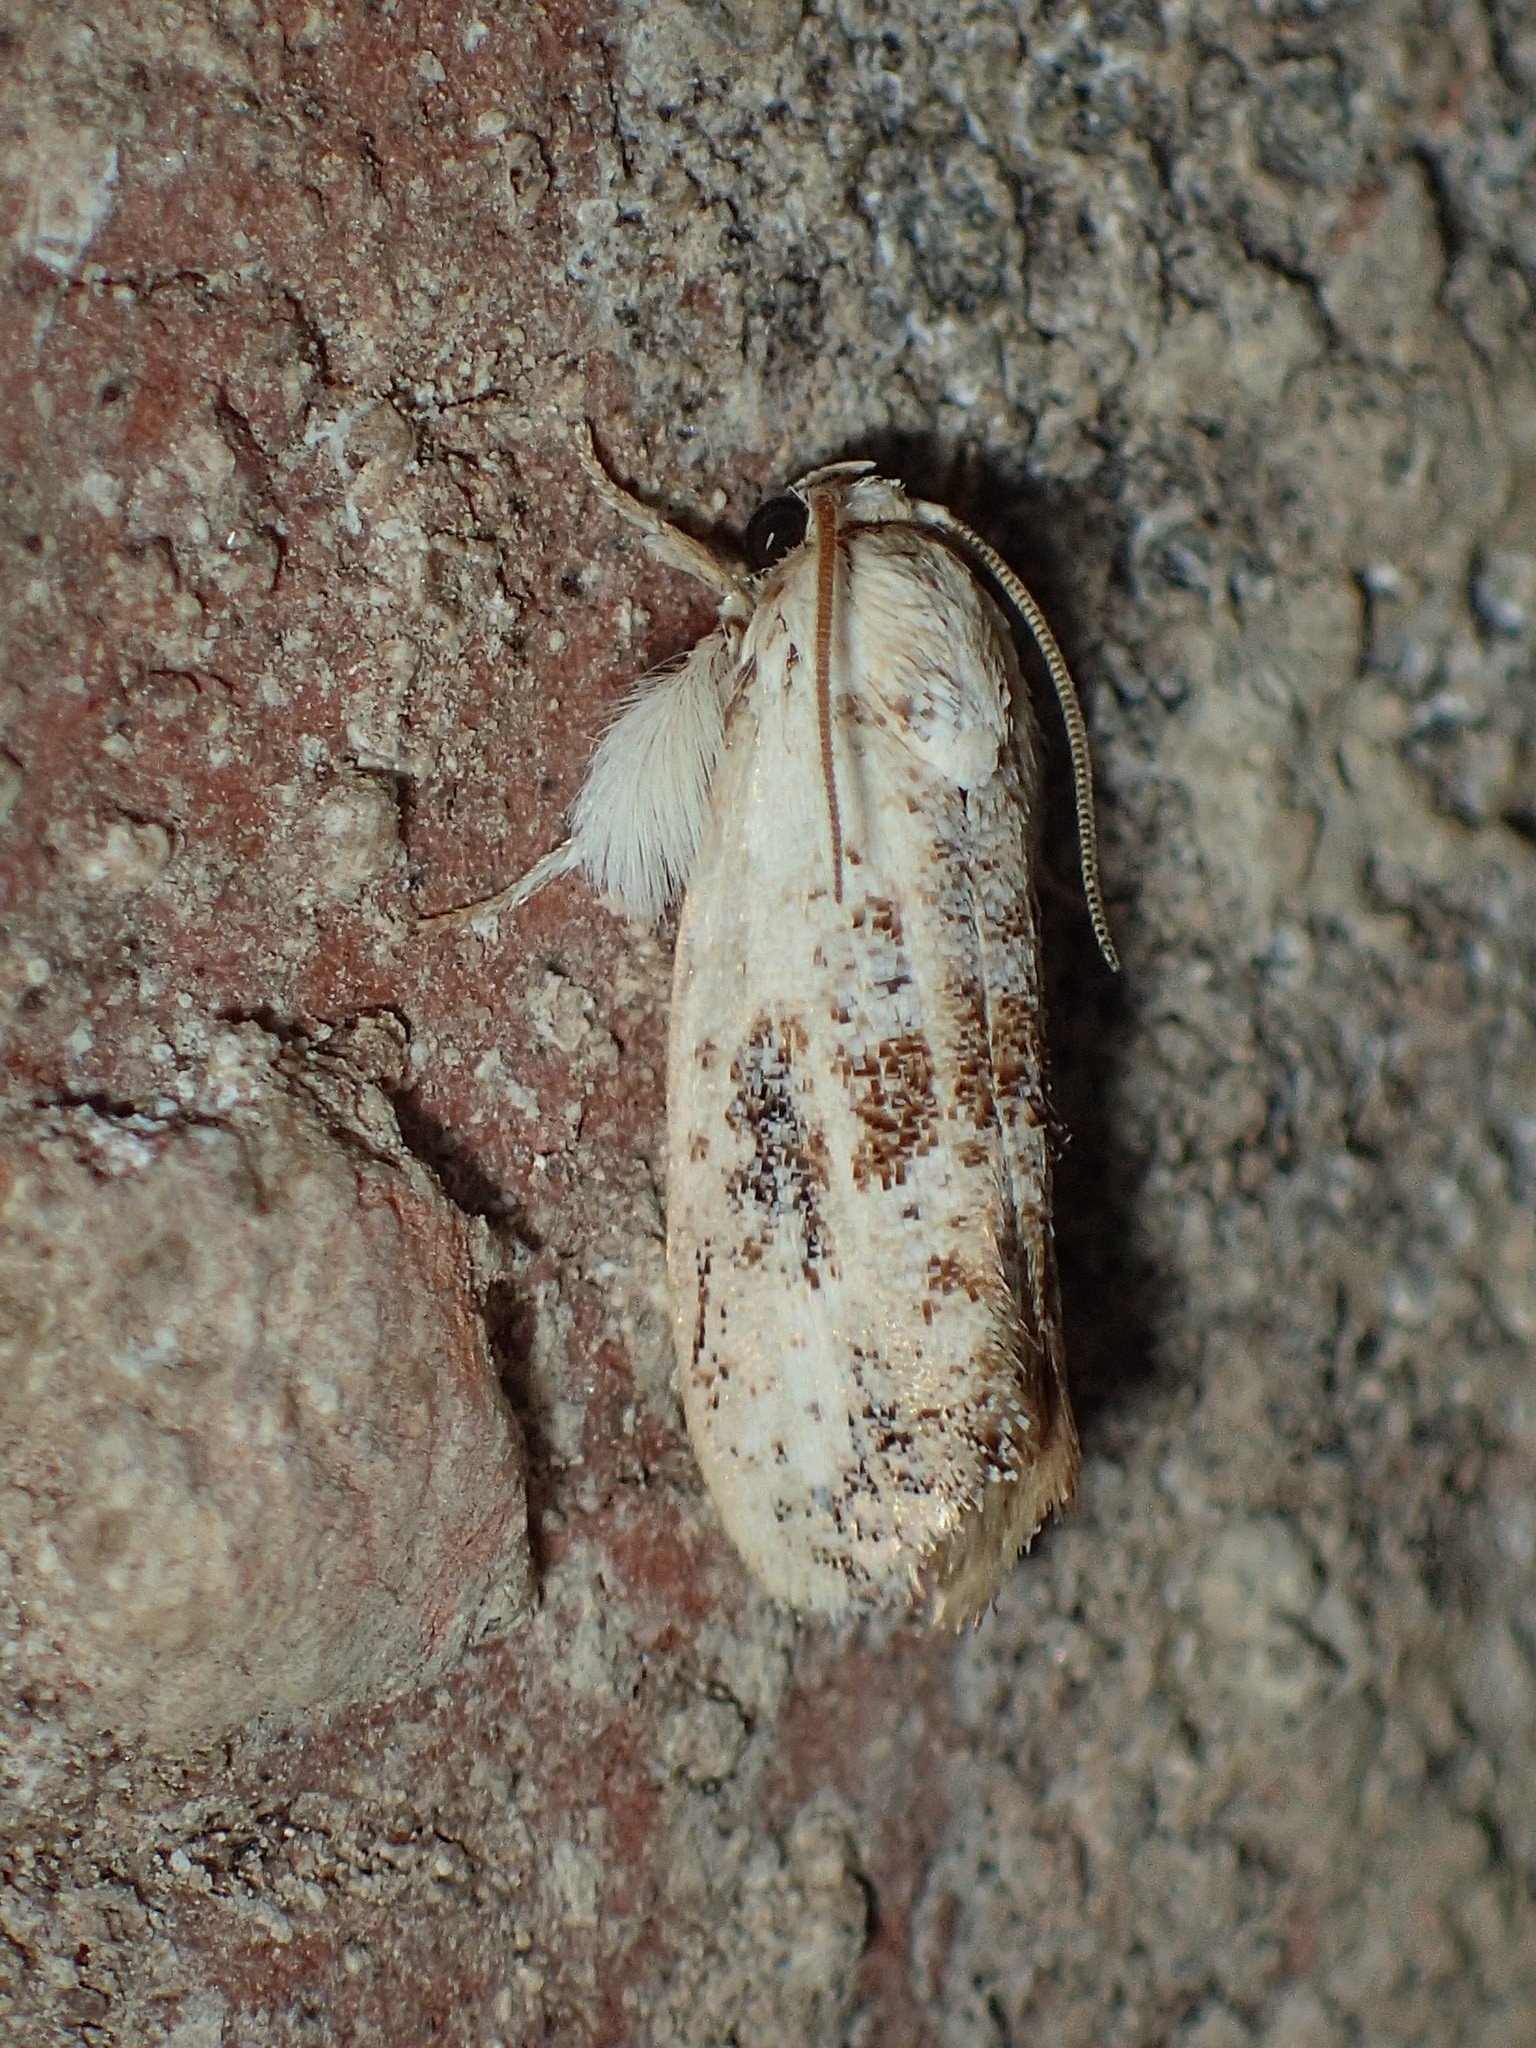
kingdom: Animalia
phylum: Arthropoda
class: Insecta
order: Lepidoptera
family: Tineidae
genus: Acrolophus
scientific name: Acrolophus mycetophagus
